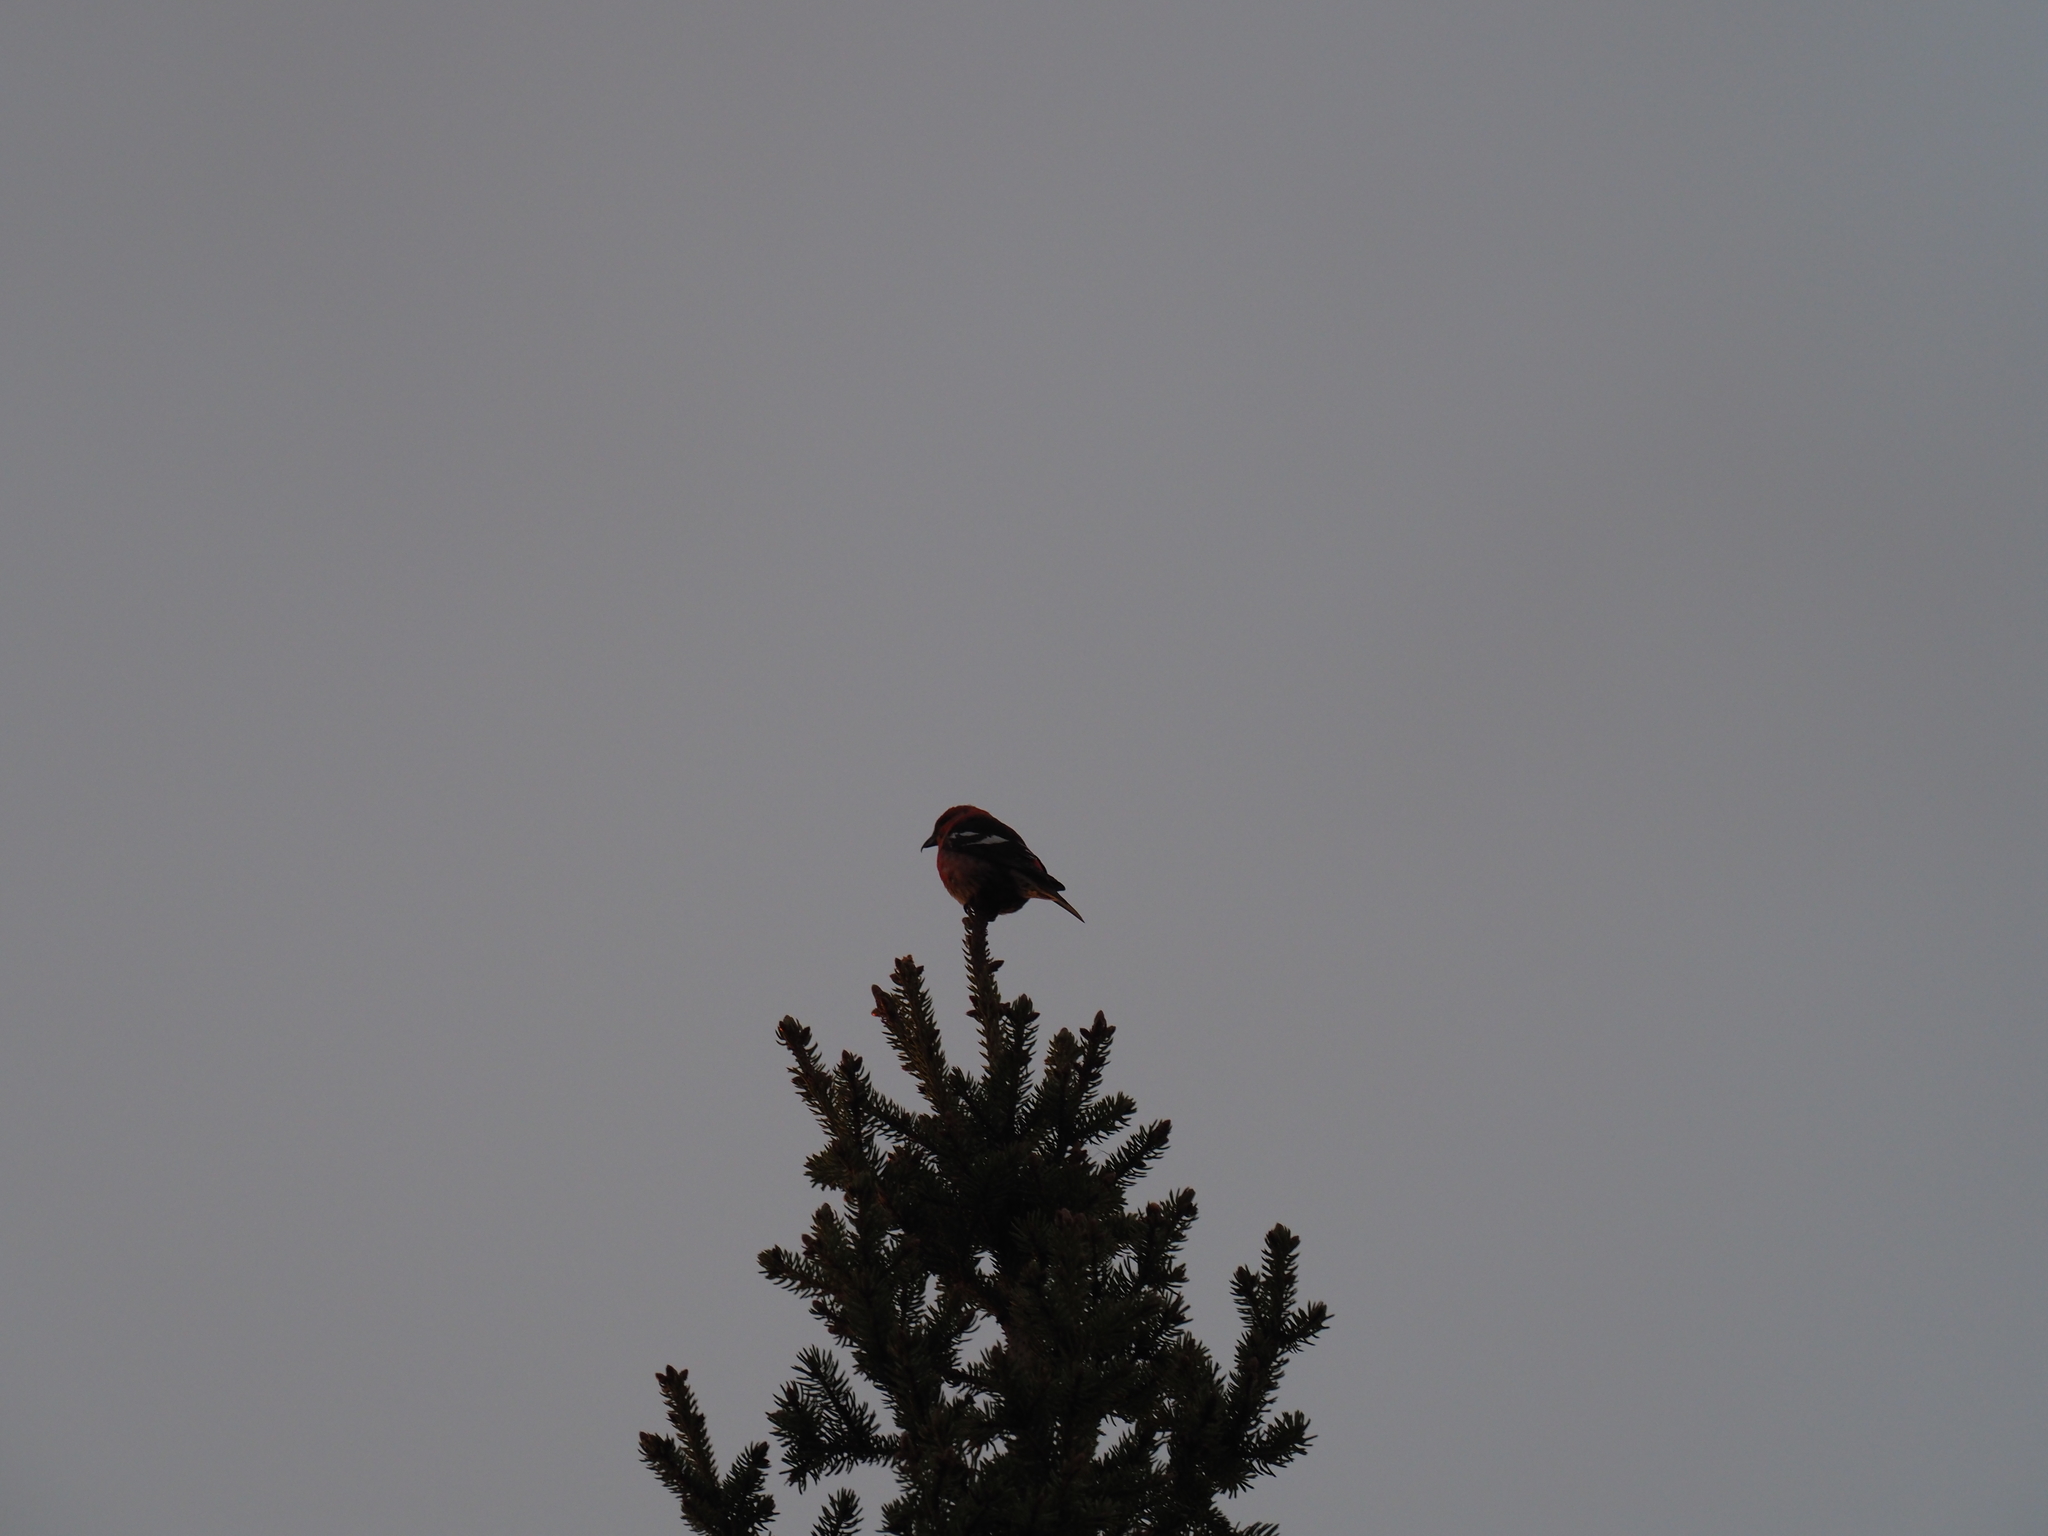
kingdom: Animalia
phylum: Chordata
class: Aves
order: Passeriformes
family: Fringillidae
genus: Loxia
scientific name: Loxia leucoptera
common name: Two-barred crossbill
